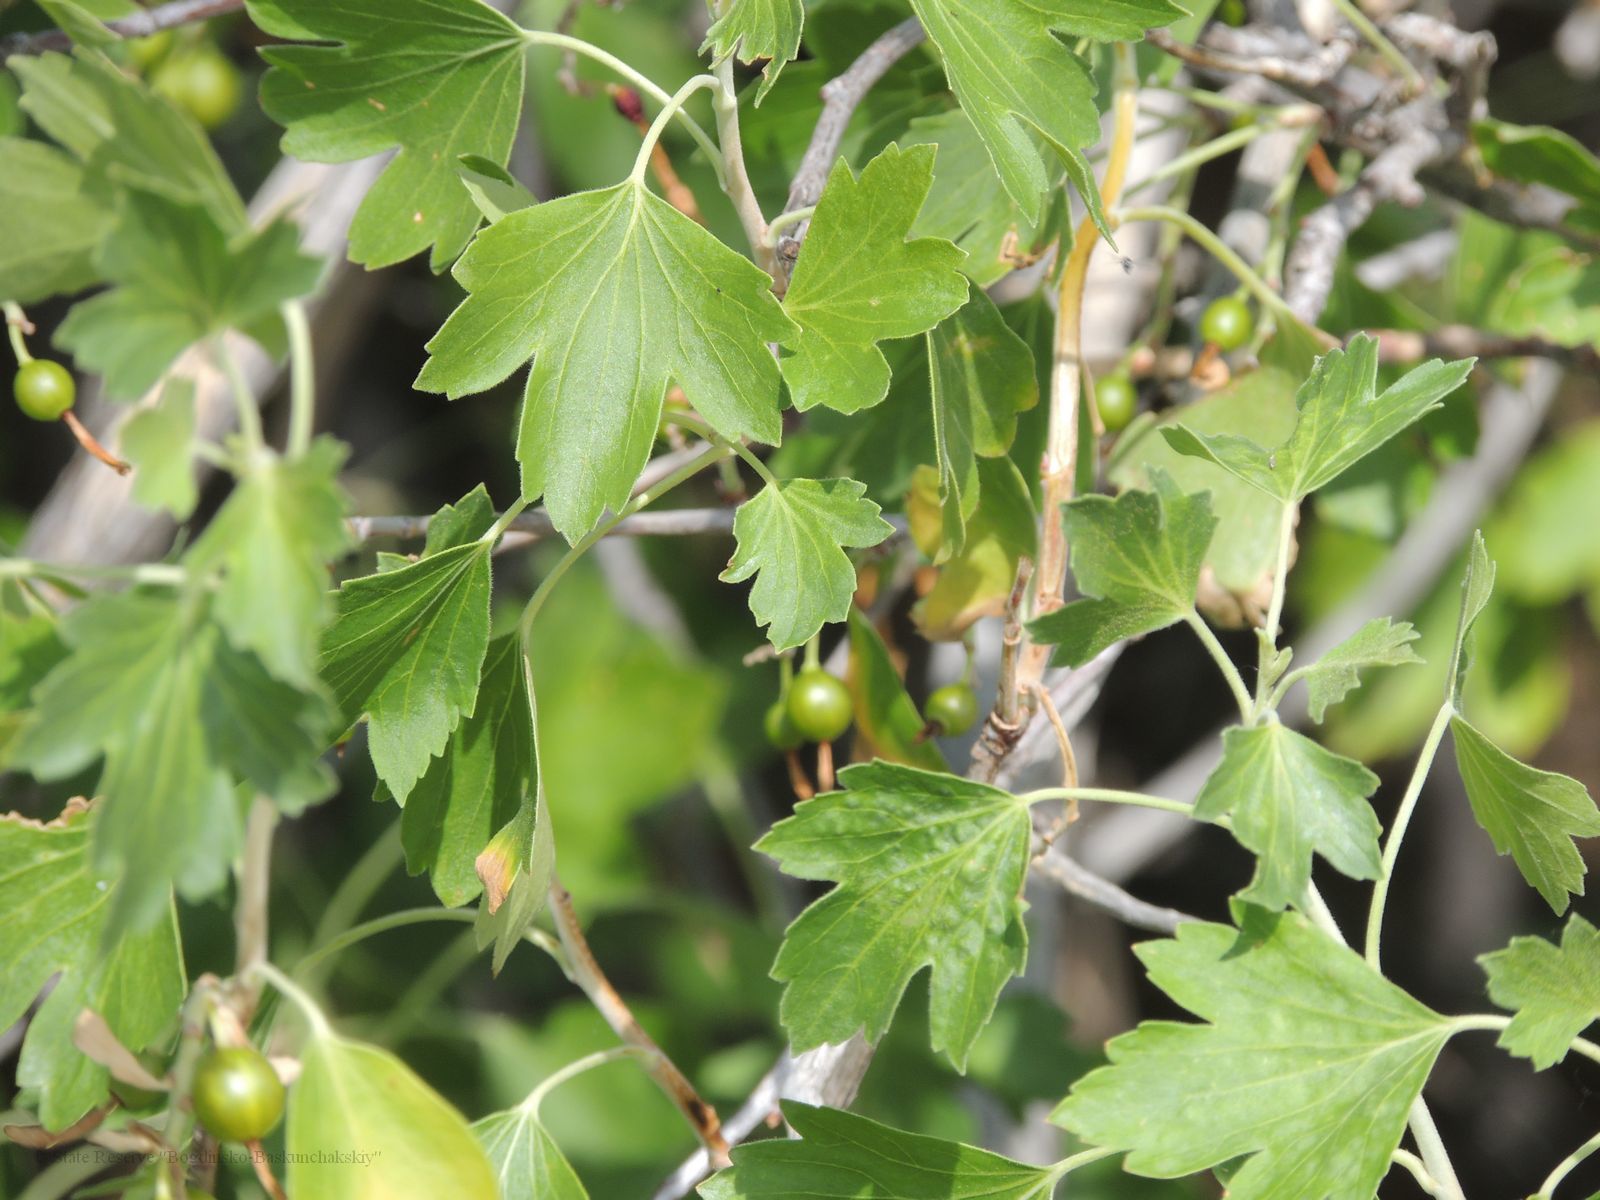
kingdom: Plantae
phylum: Tracheophyta
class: Magnoliopsida
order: Saxifragales
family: Grossulariaceae
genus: Ribes
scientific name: Ribes aureum
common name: Golden currant
